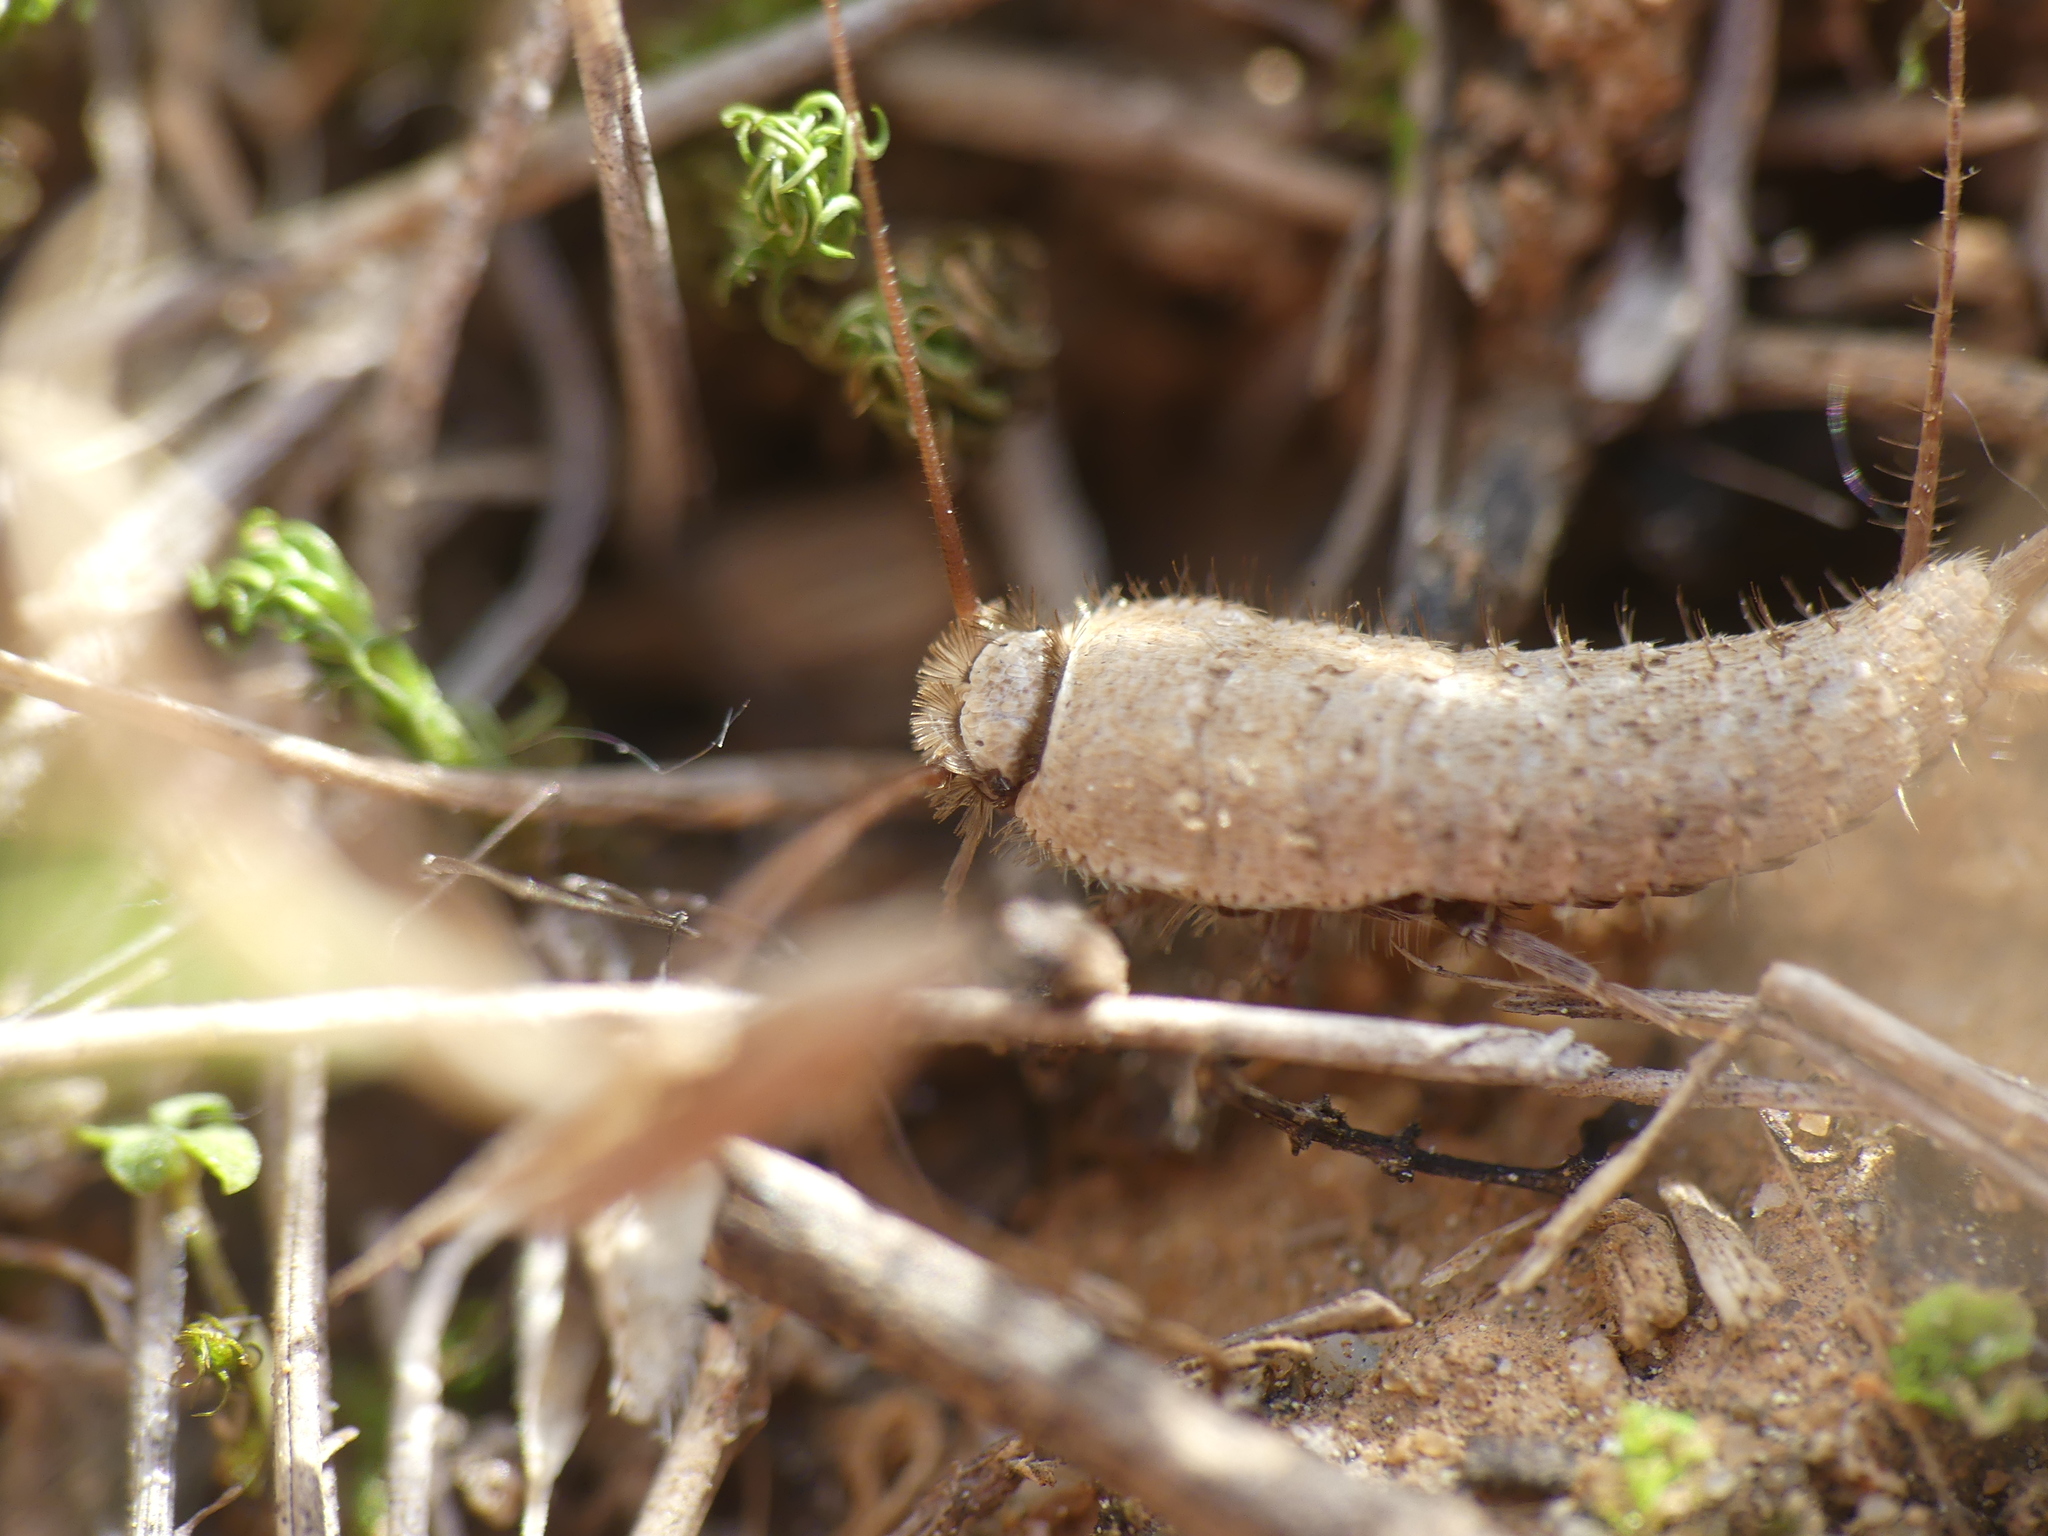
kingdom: Animalia
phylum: Arthropoda
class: Insecta
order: Zygentoma
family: Lepismatidae
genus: Ctenolepisma
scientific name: Ctenolepisma ciliata
